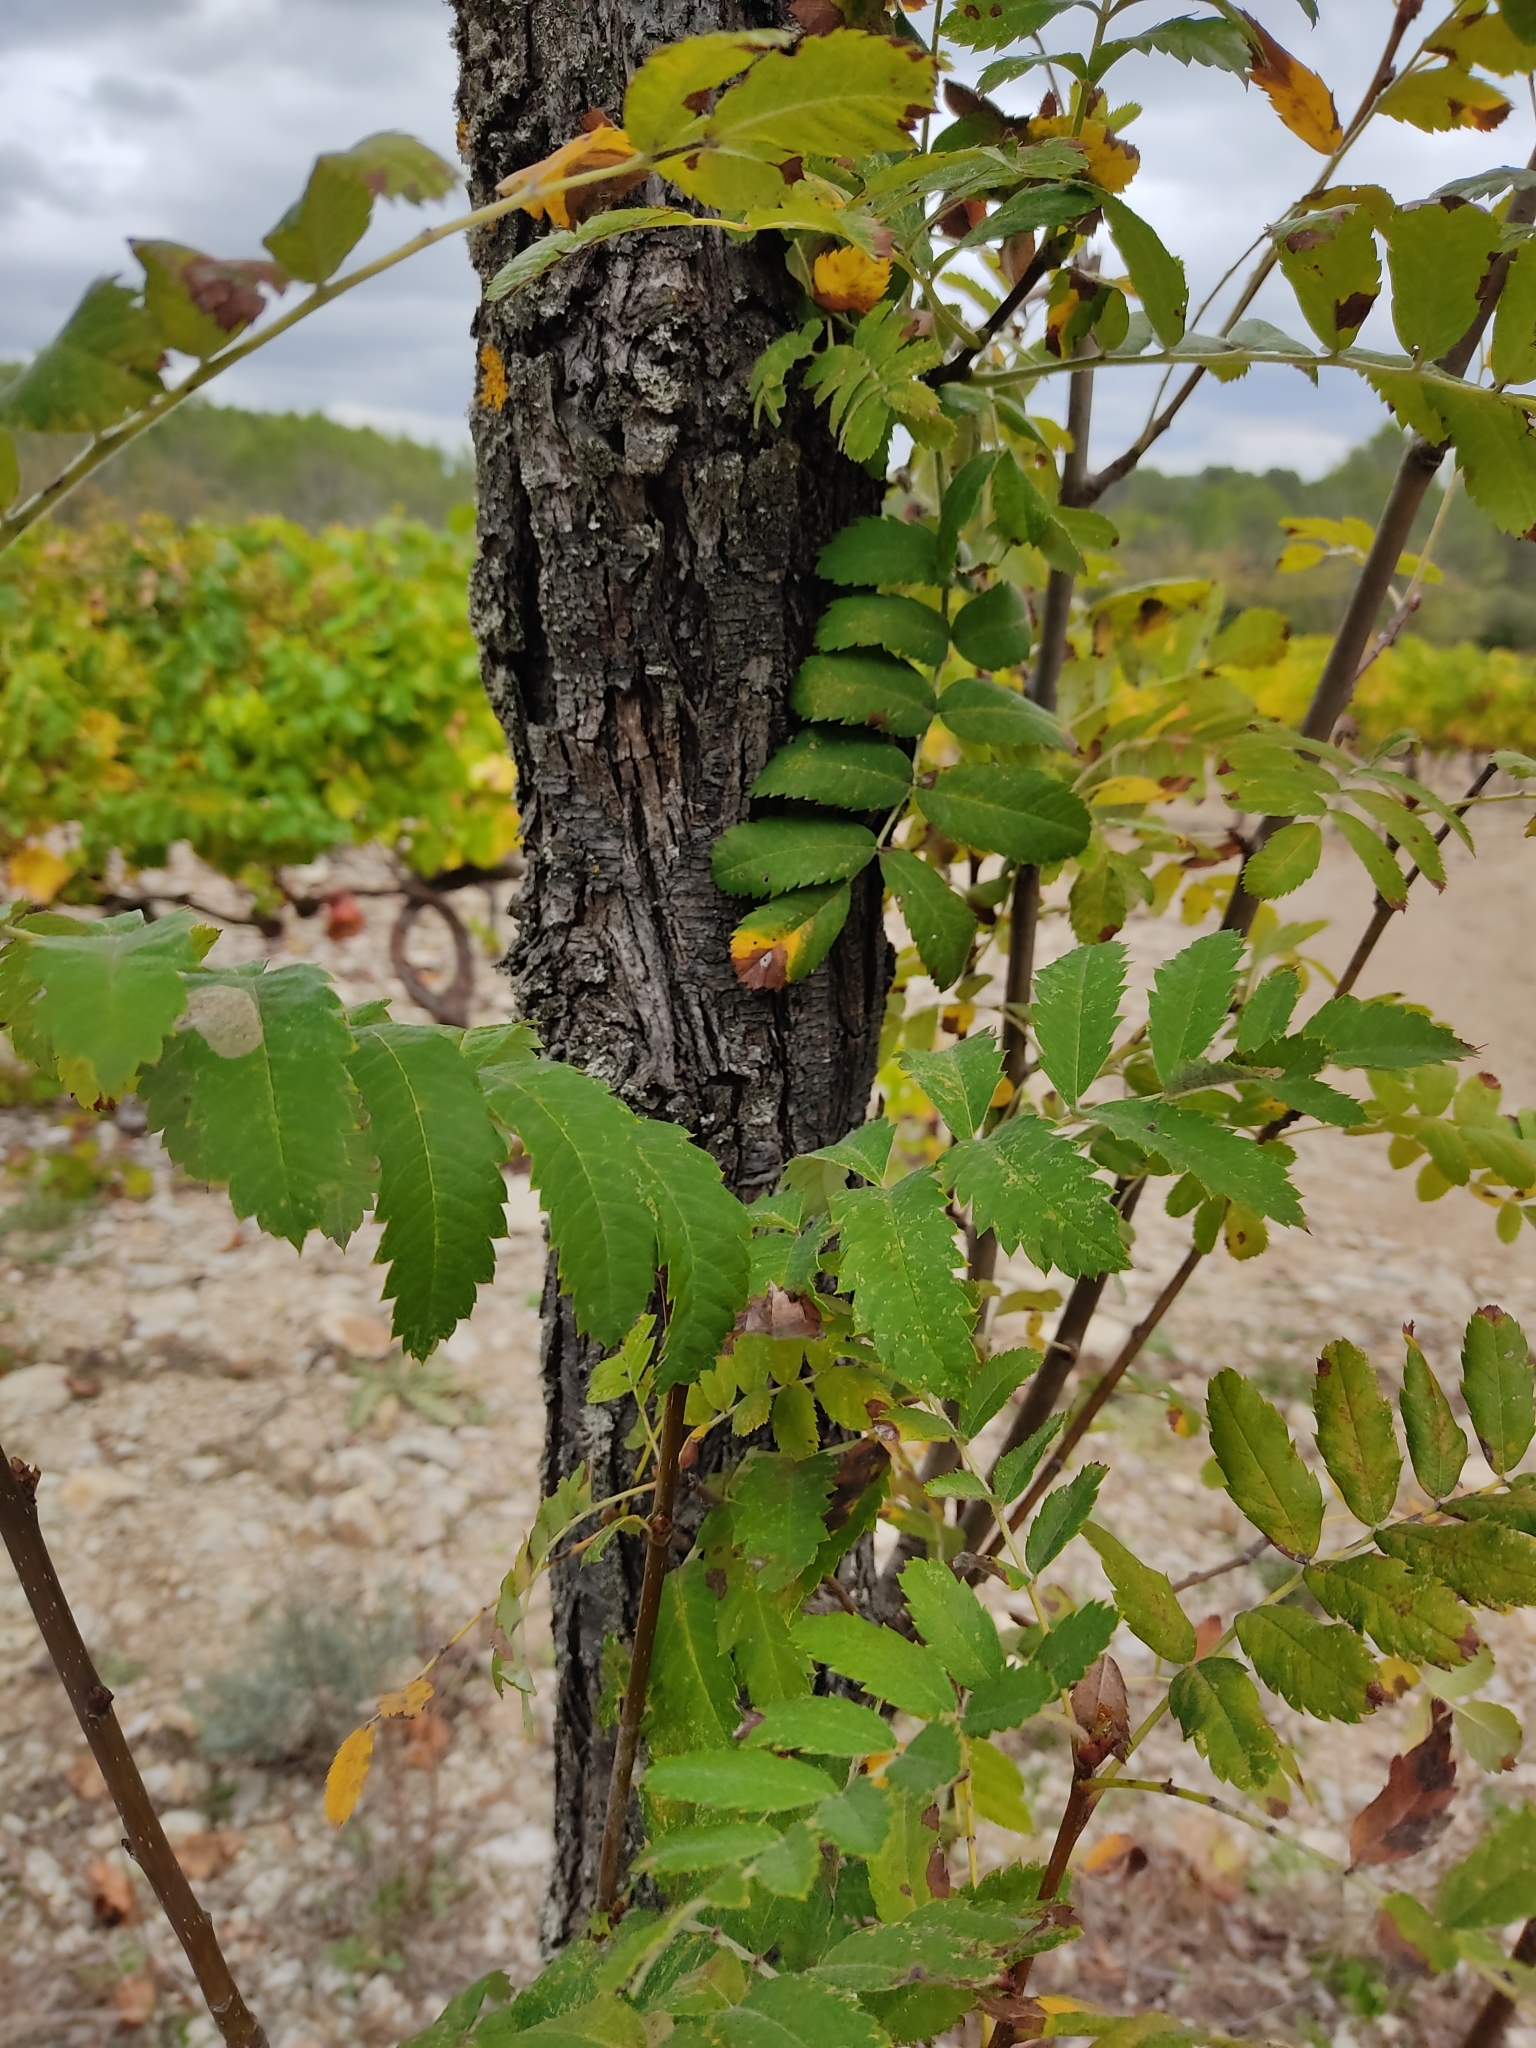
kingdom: Plantae
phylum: Tracheophyta
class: Magnoliopsida
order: Rosales
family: Rosaceae
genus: Cormus
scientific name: Cormus domestica
